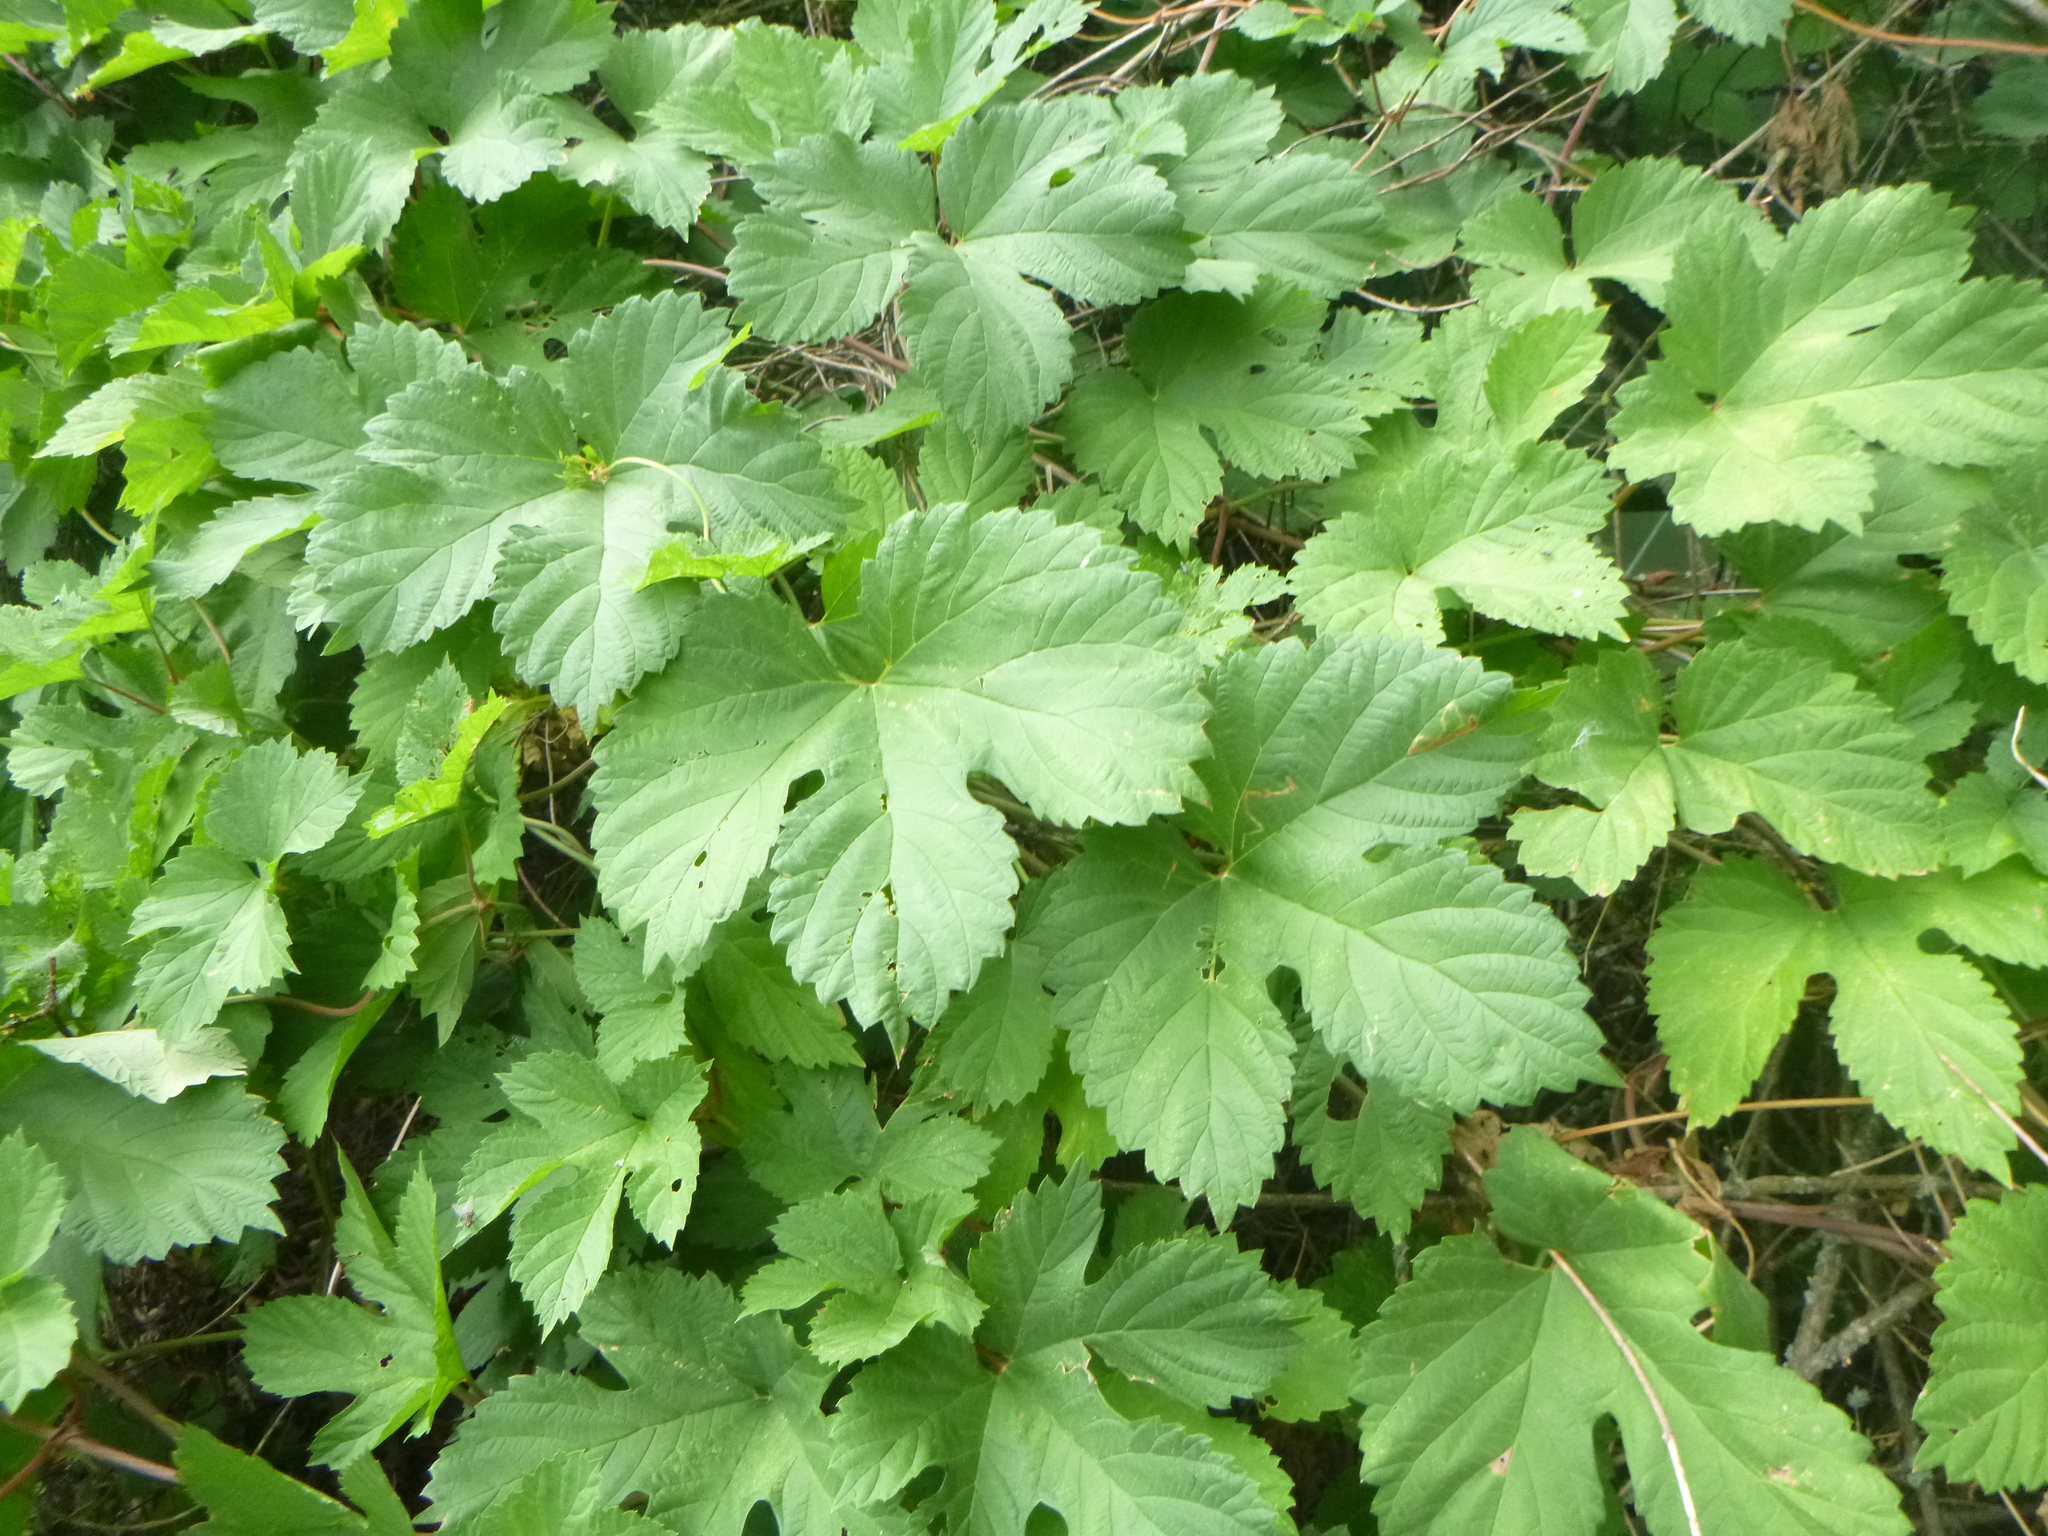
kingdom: Plantae
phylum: Tracheophyta
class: Magnoliopsida
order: Rosales
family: Cannabaceae
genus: Humulus
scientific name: Humulus lupulus
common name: Hop
